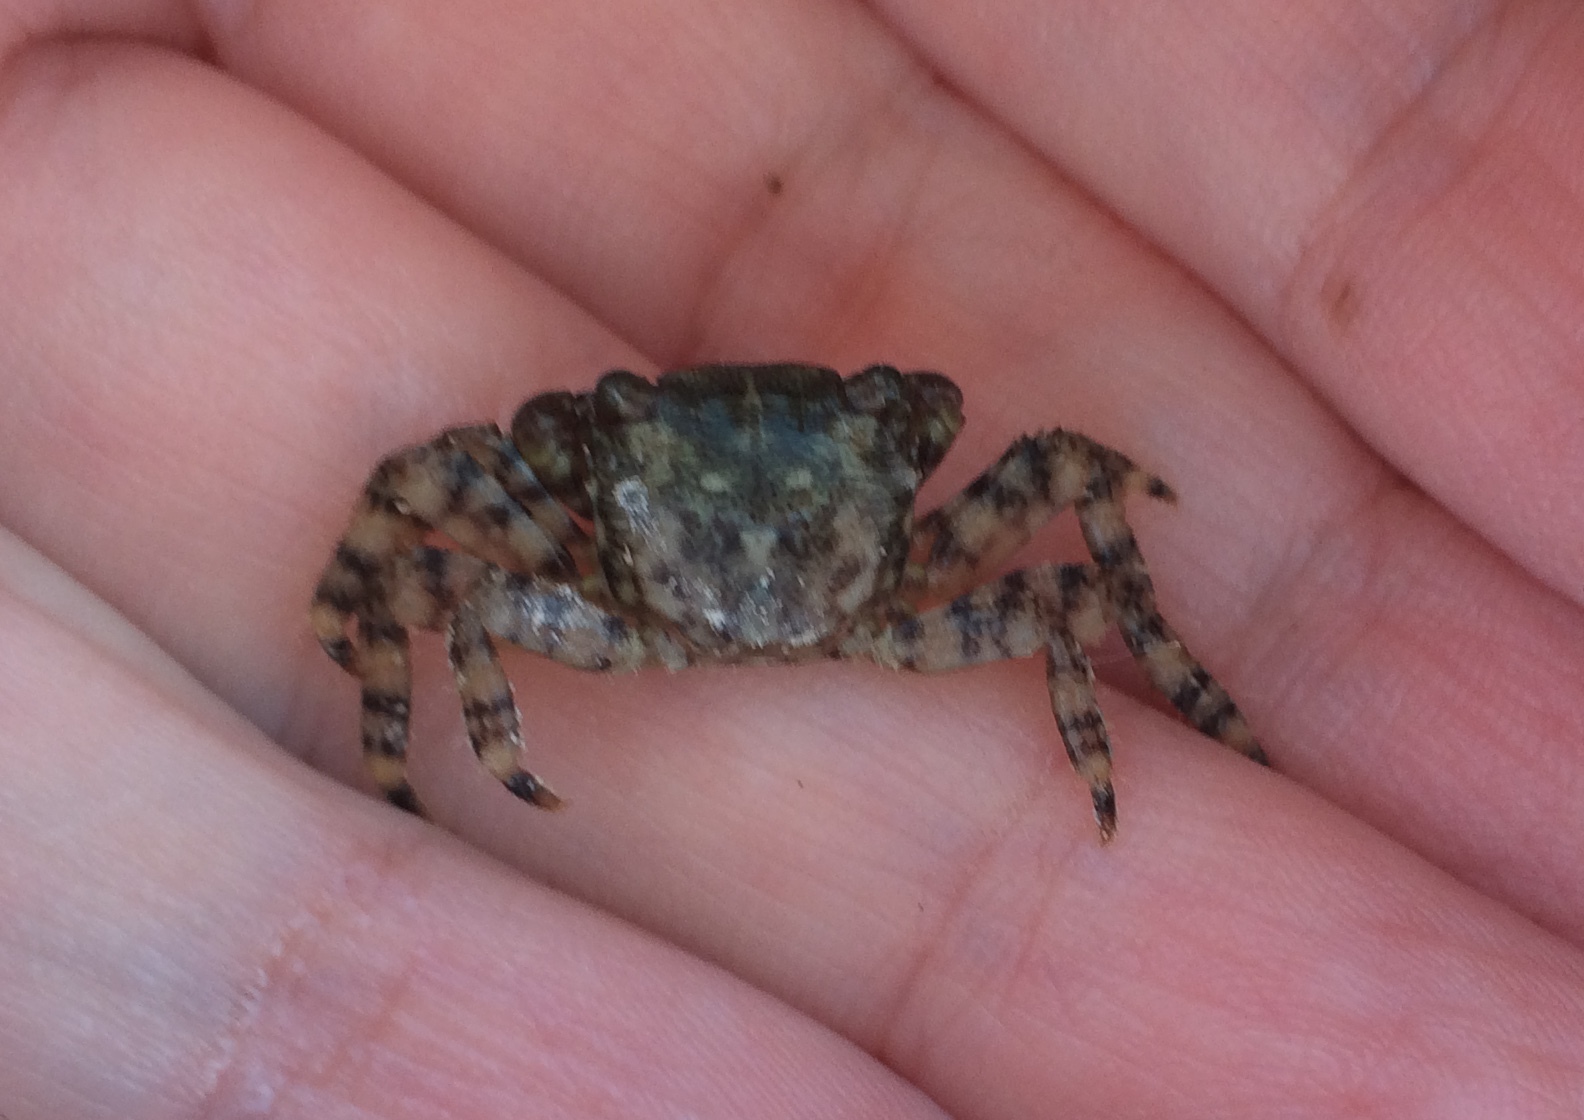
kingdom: Animalia
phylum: Arthropoda
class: Malacostraca
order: Decapoda
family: Grapsidae
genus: Pachygrapsus
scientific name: Pachygrapsus marmoratus
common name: Marbled rock crab
